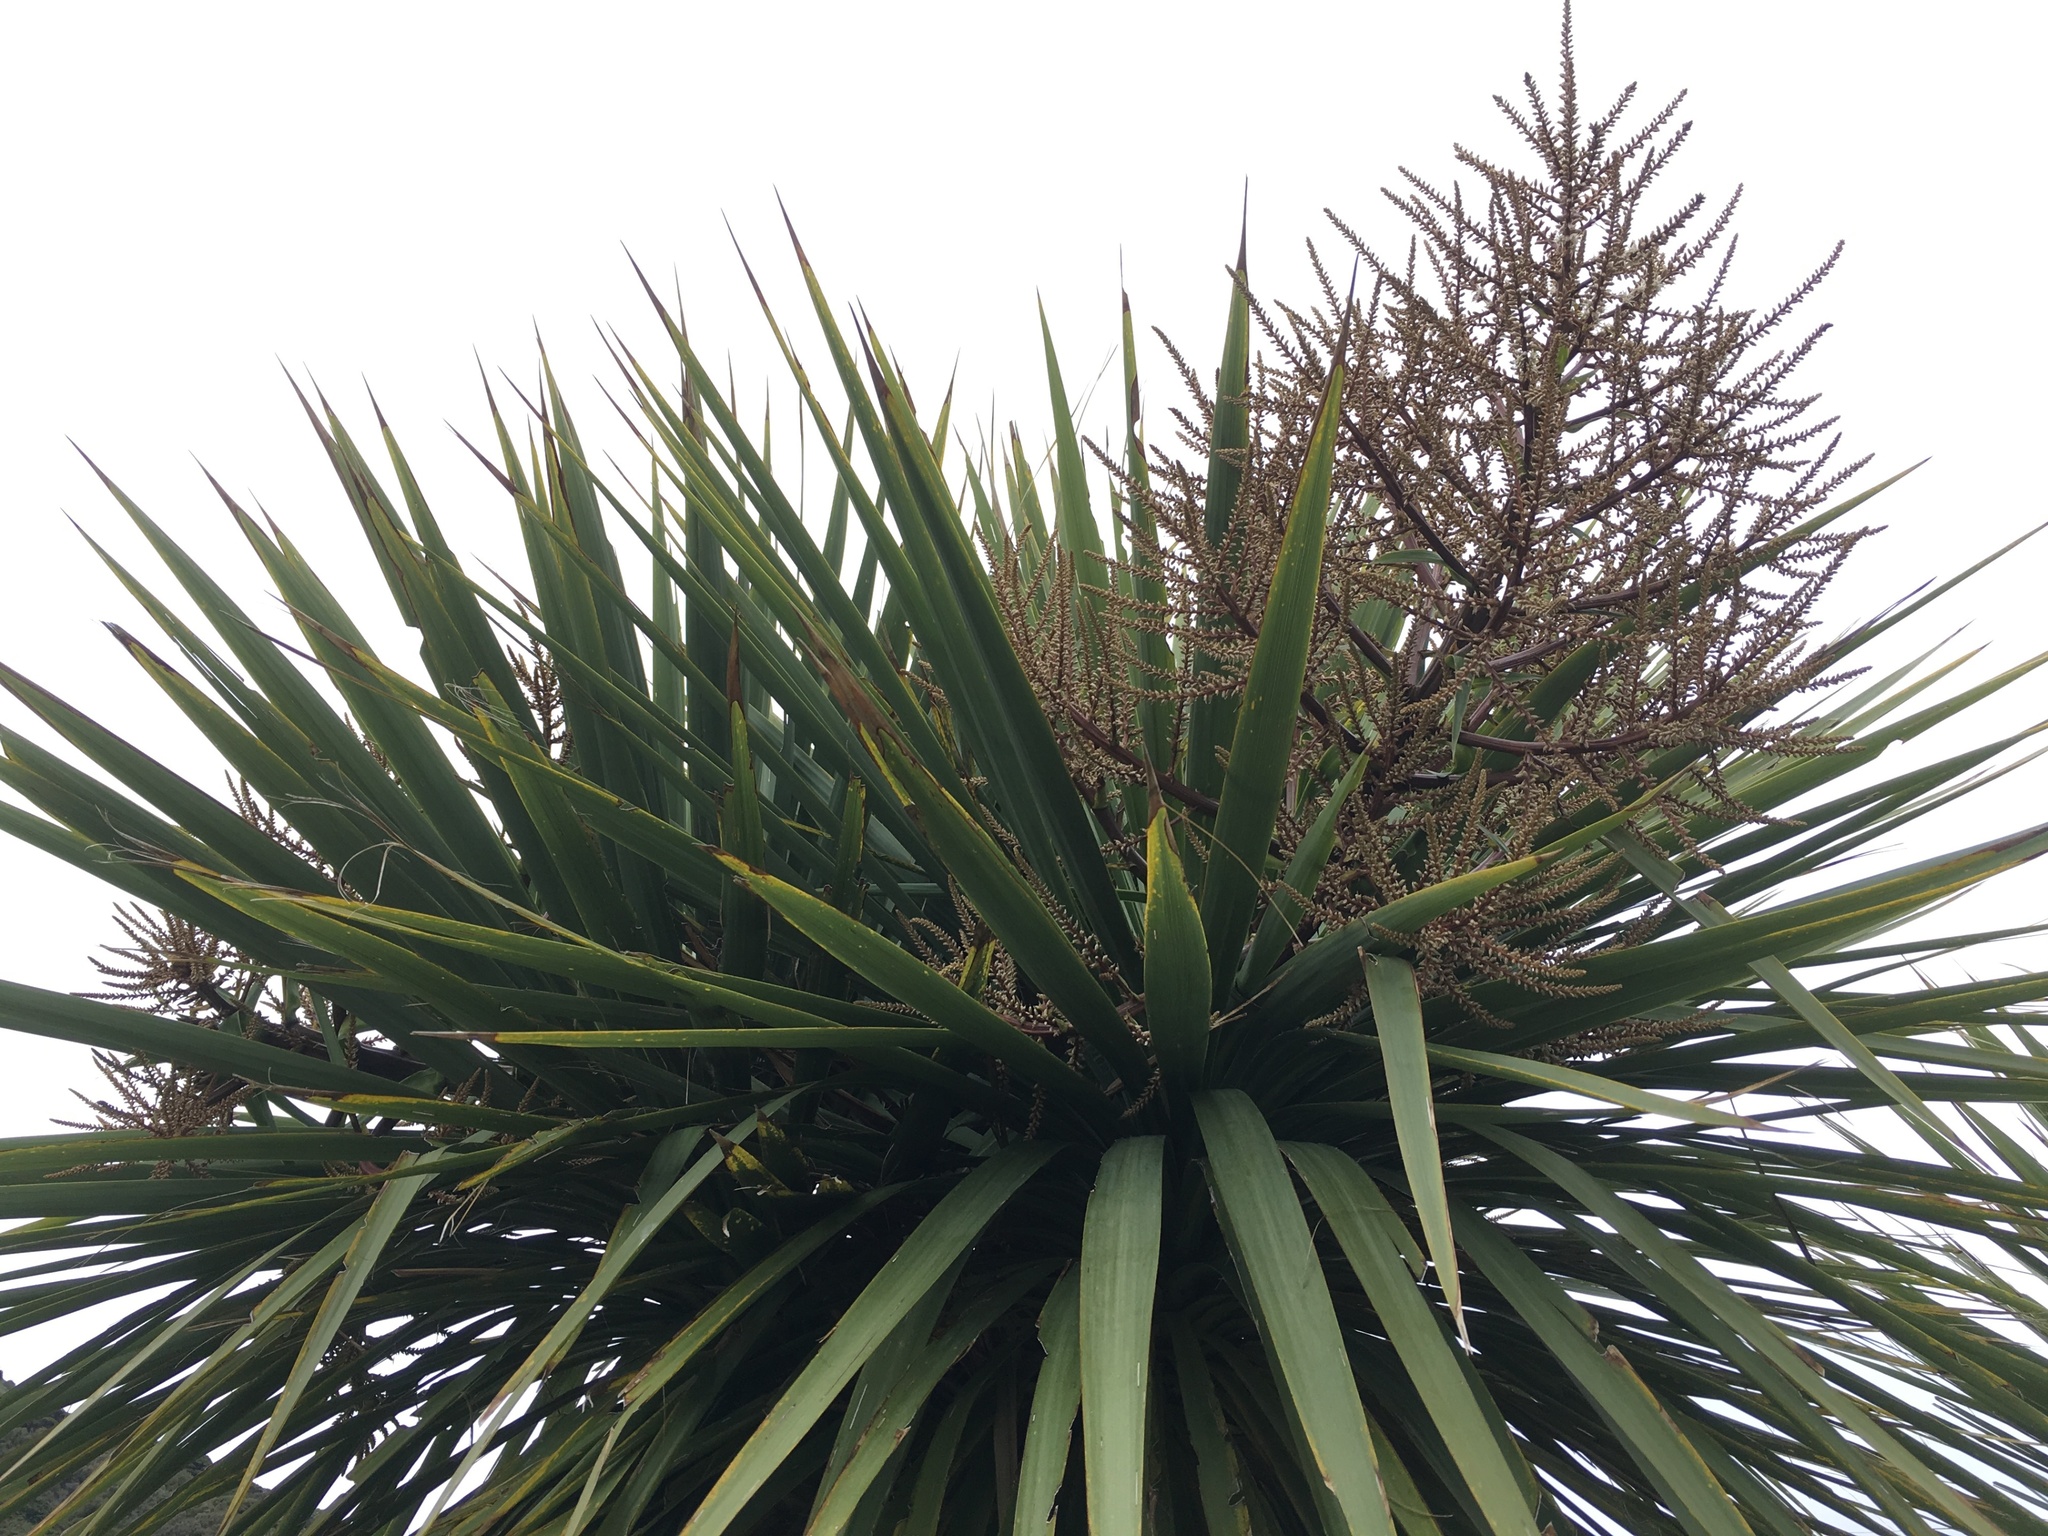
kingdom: Plantae
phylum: Tracheophyta
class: Liliopsida
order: Asparagales
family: Asparagaceae
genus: Cordyline
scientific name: Cordyline australis
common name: Cabbage-palm
